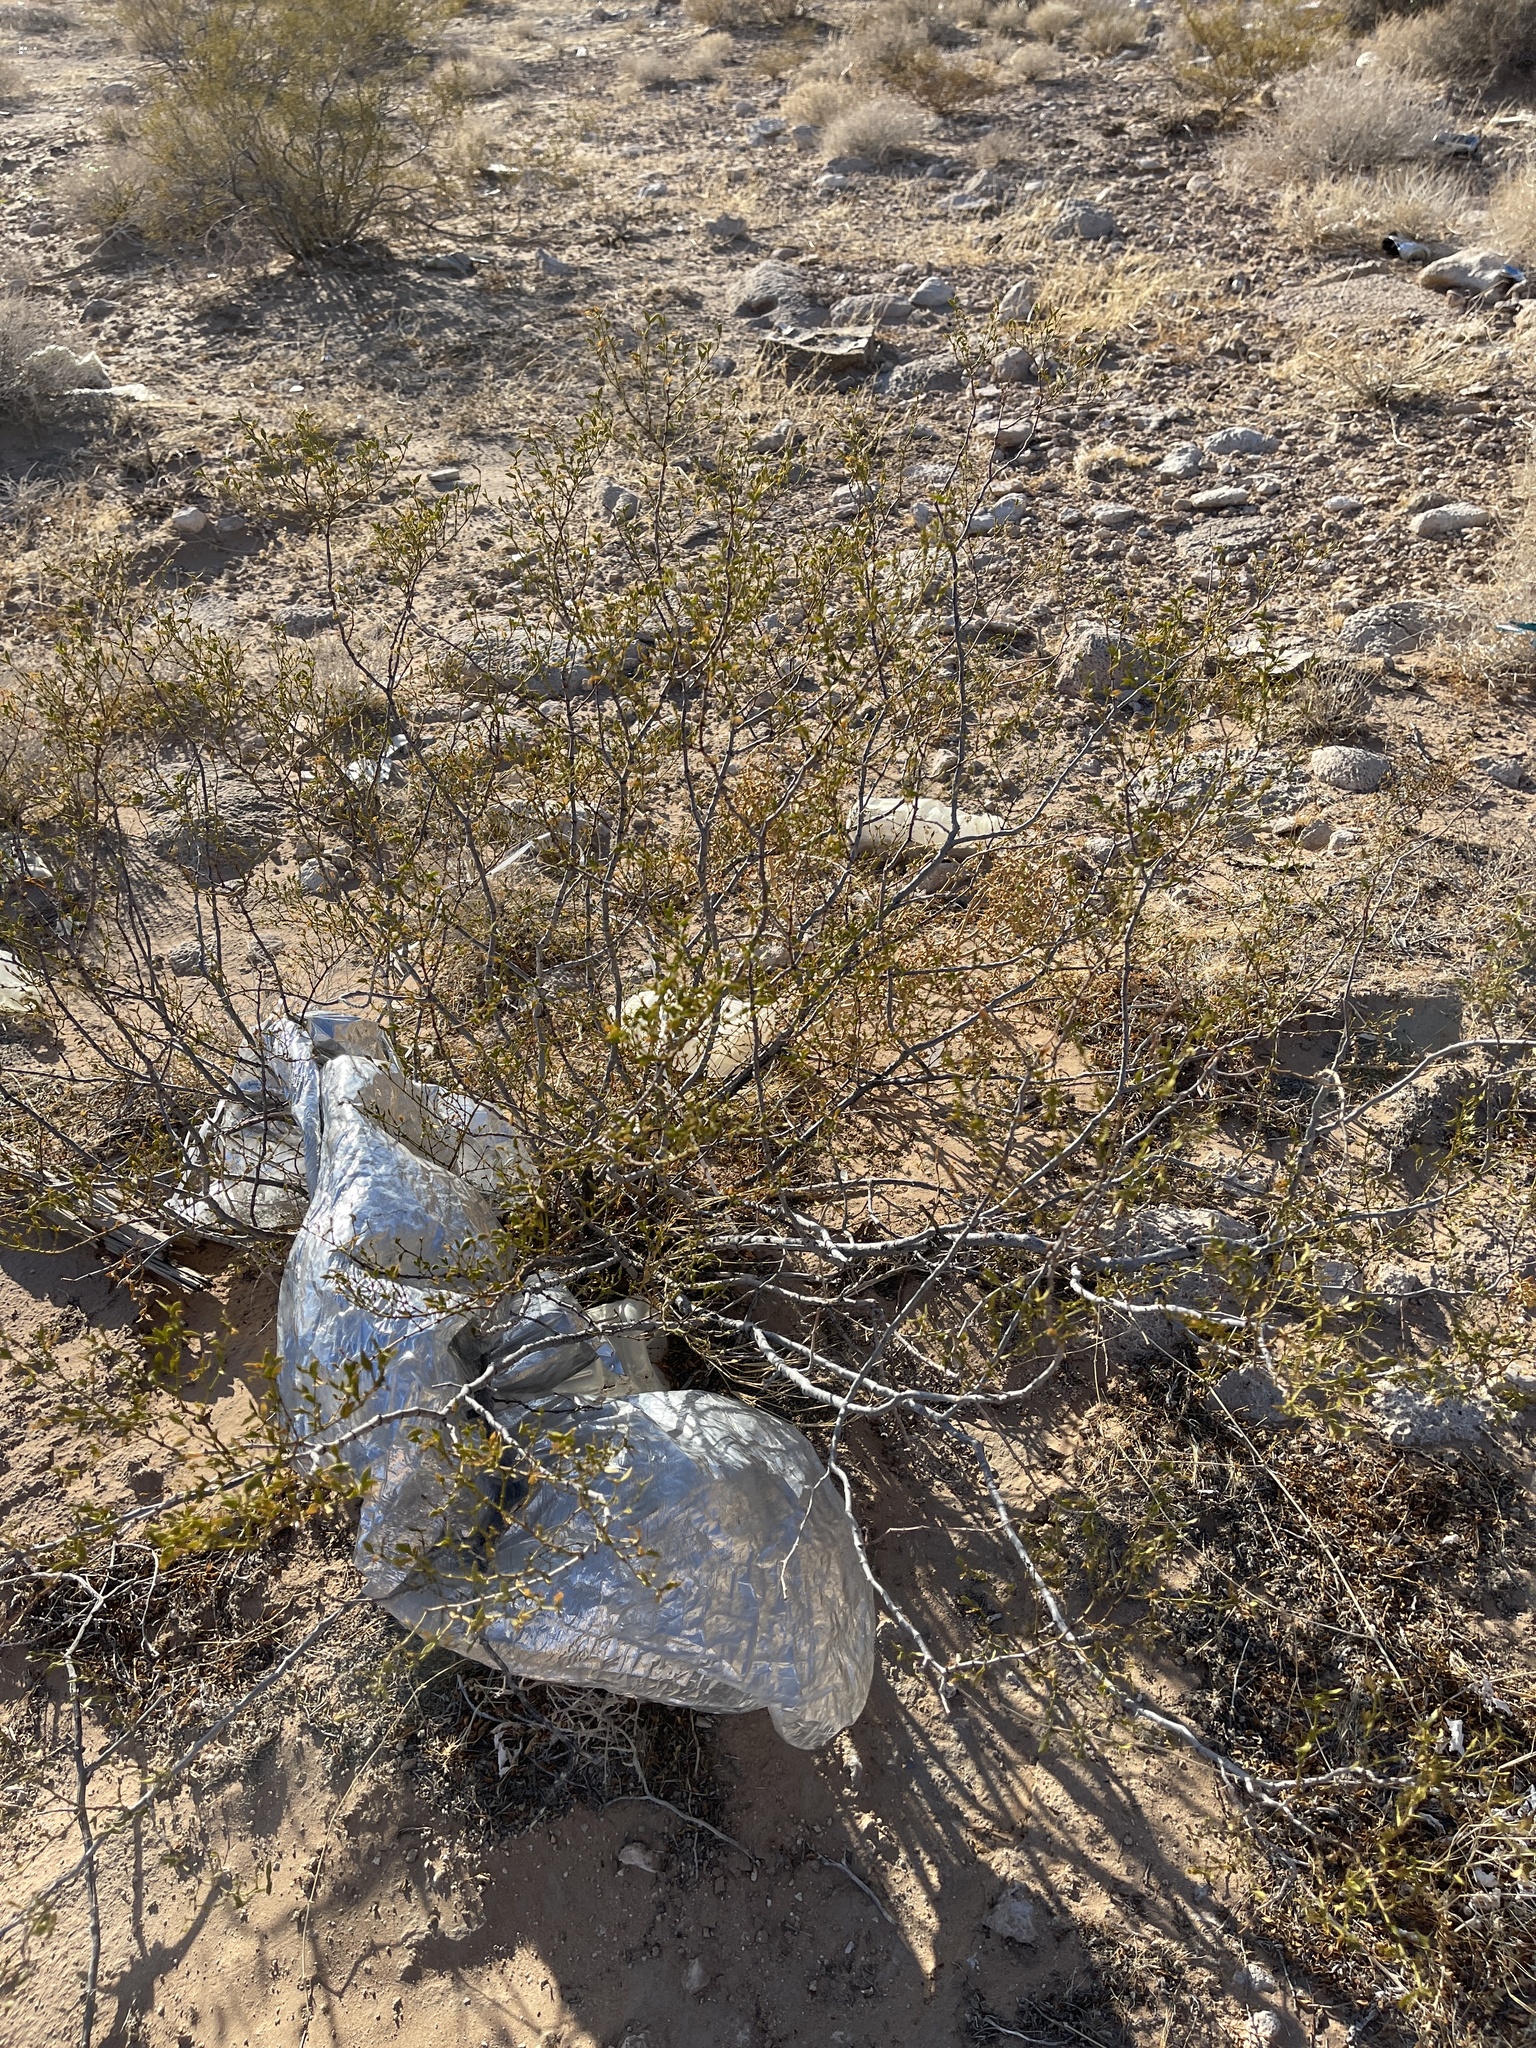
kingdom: Plantae
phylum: Tracheophyta
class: Magnoliopsida
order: Zygophyllales
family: Zygophyllaceae
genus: Larrea
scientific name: Larrea tridentata
